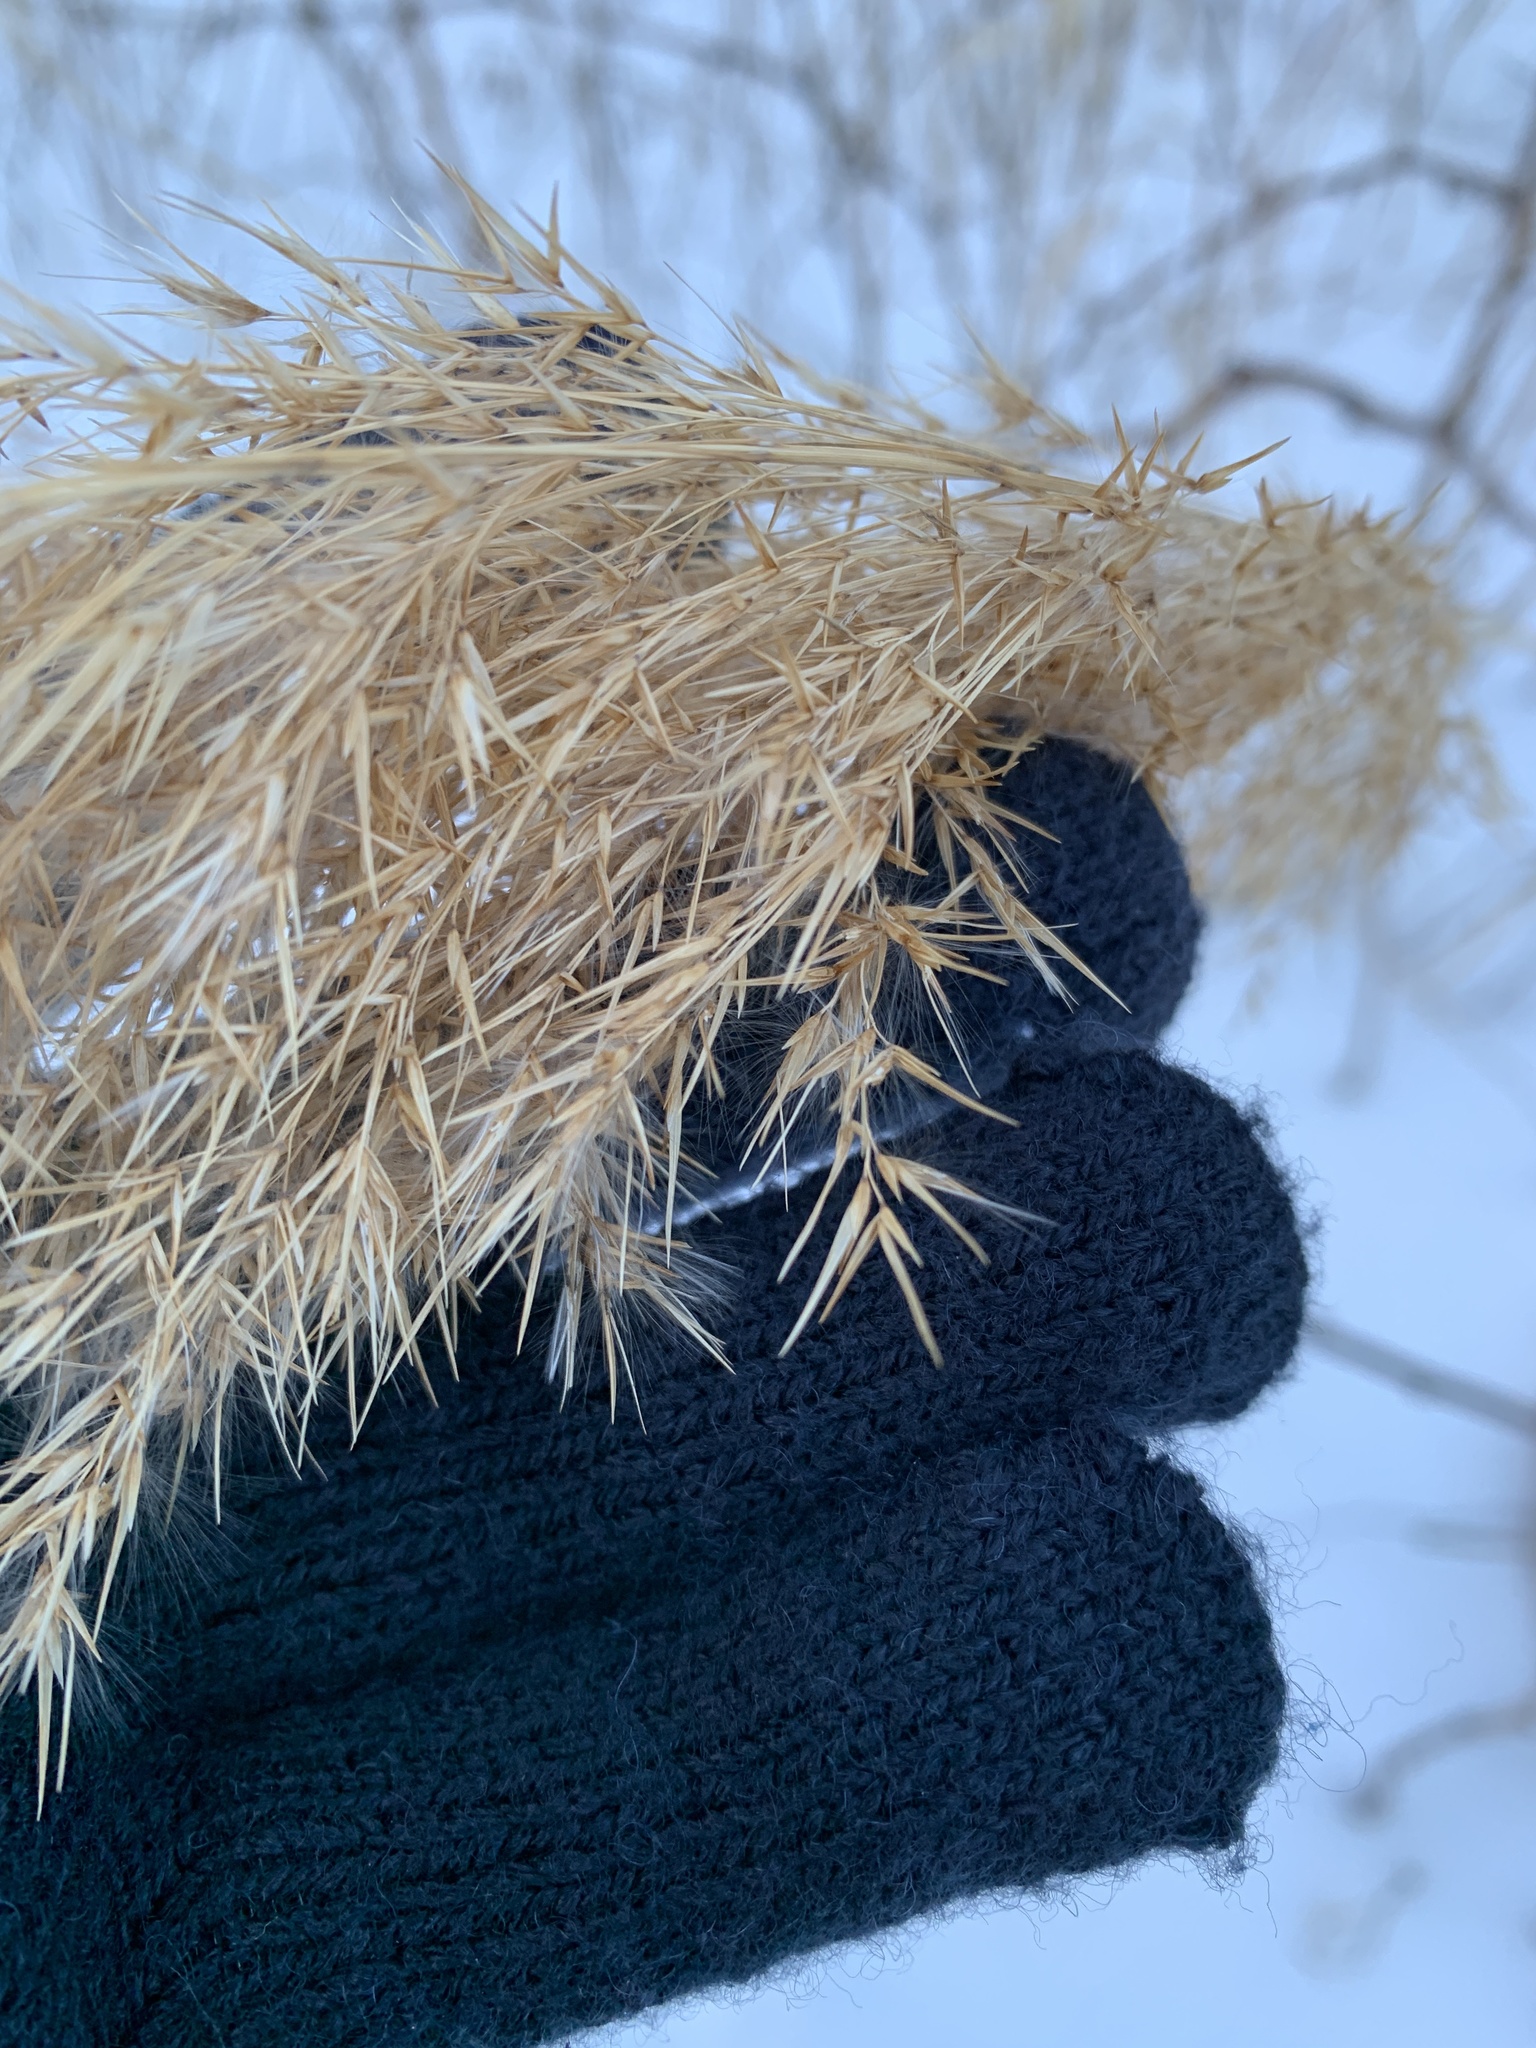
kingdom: Plantae
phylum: Tracheophyta
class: Liliopsida
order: Poales
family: Poaceae
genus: Phragmites
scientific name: Phragmites australis
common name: Common reed
